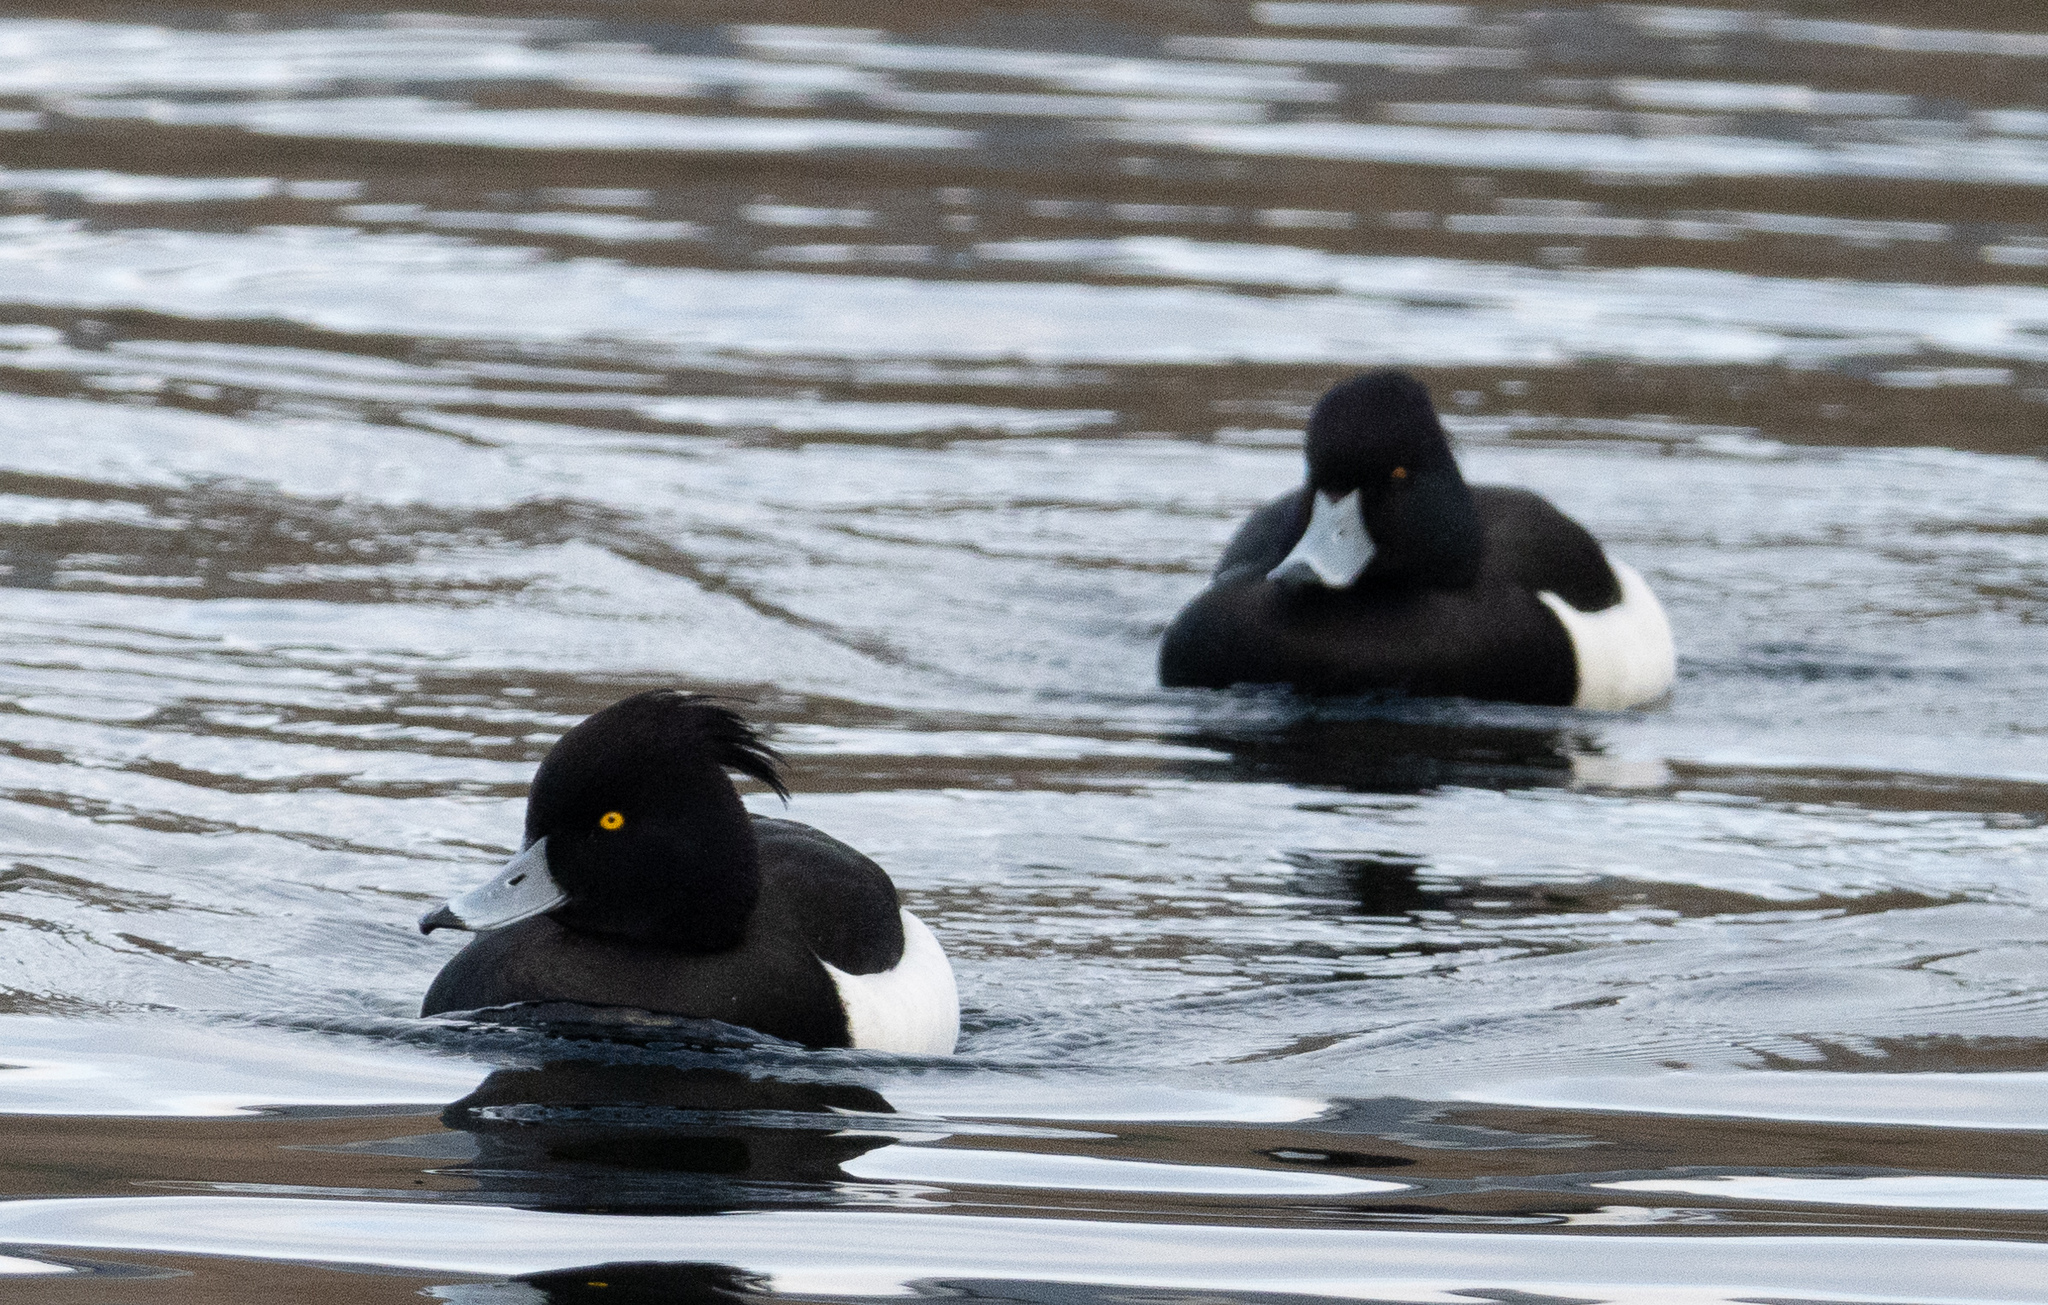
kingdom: Animalia
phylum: Chordata
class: Aves
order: Anseriformes
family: Anatidae
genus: Aythya
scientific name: Aythya fuligula
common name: Tufted duck
